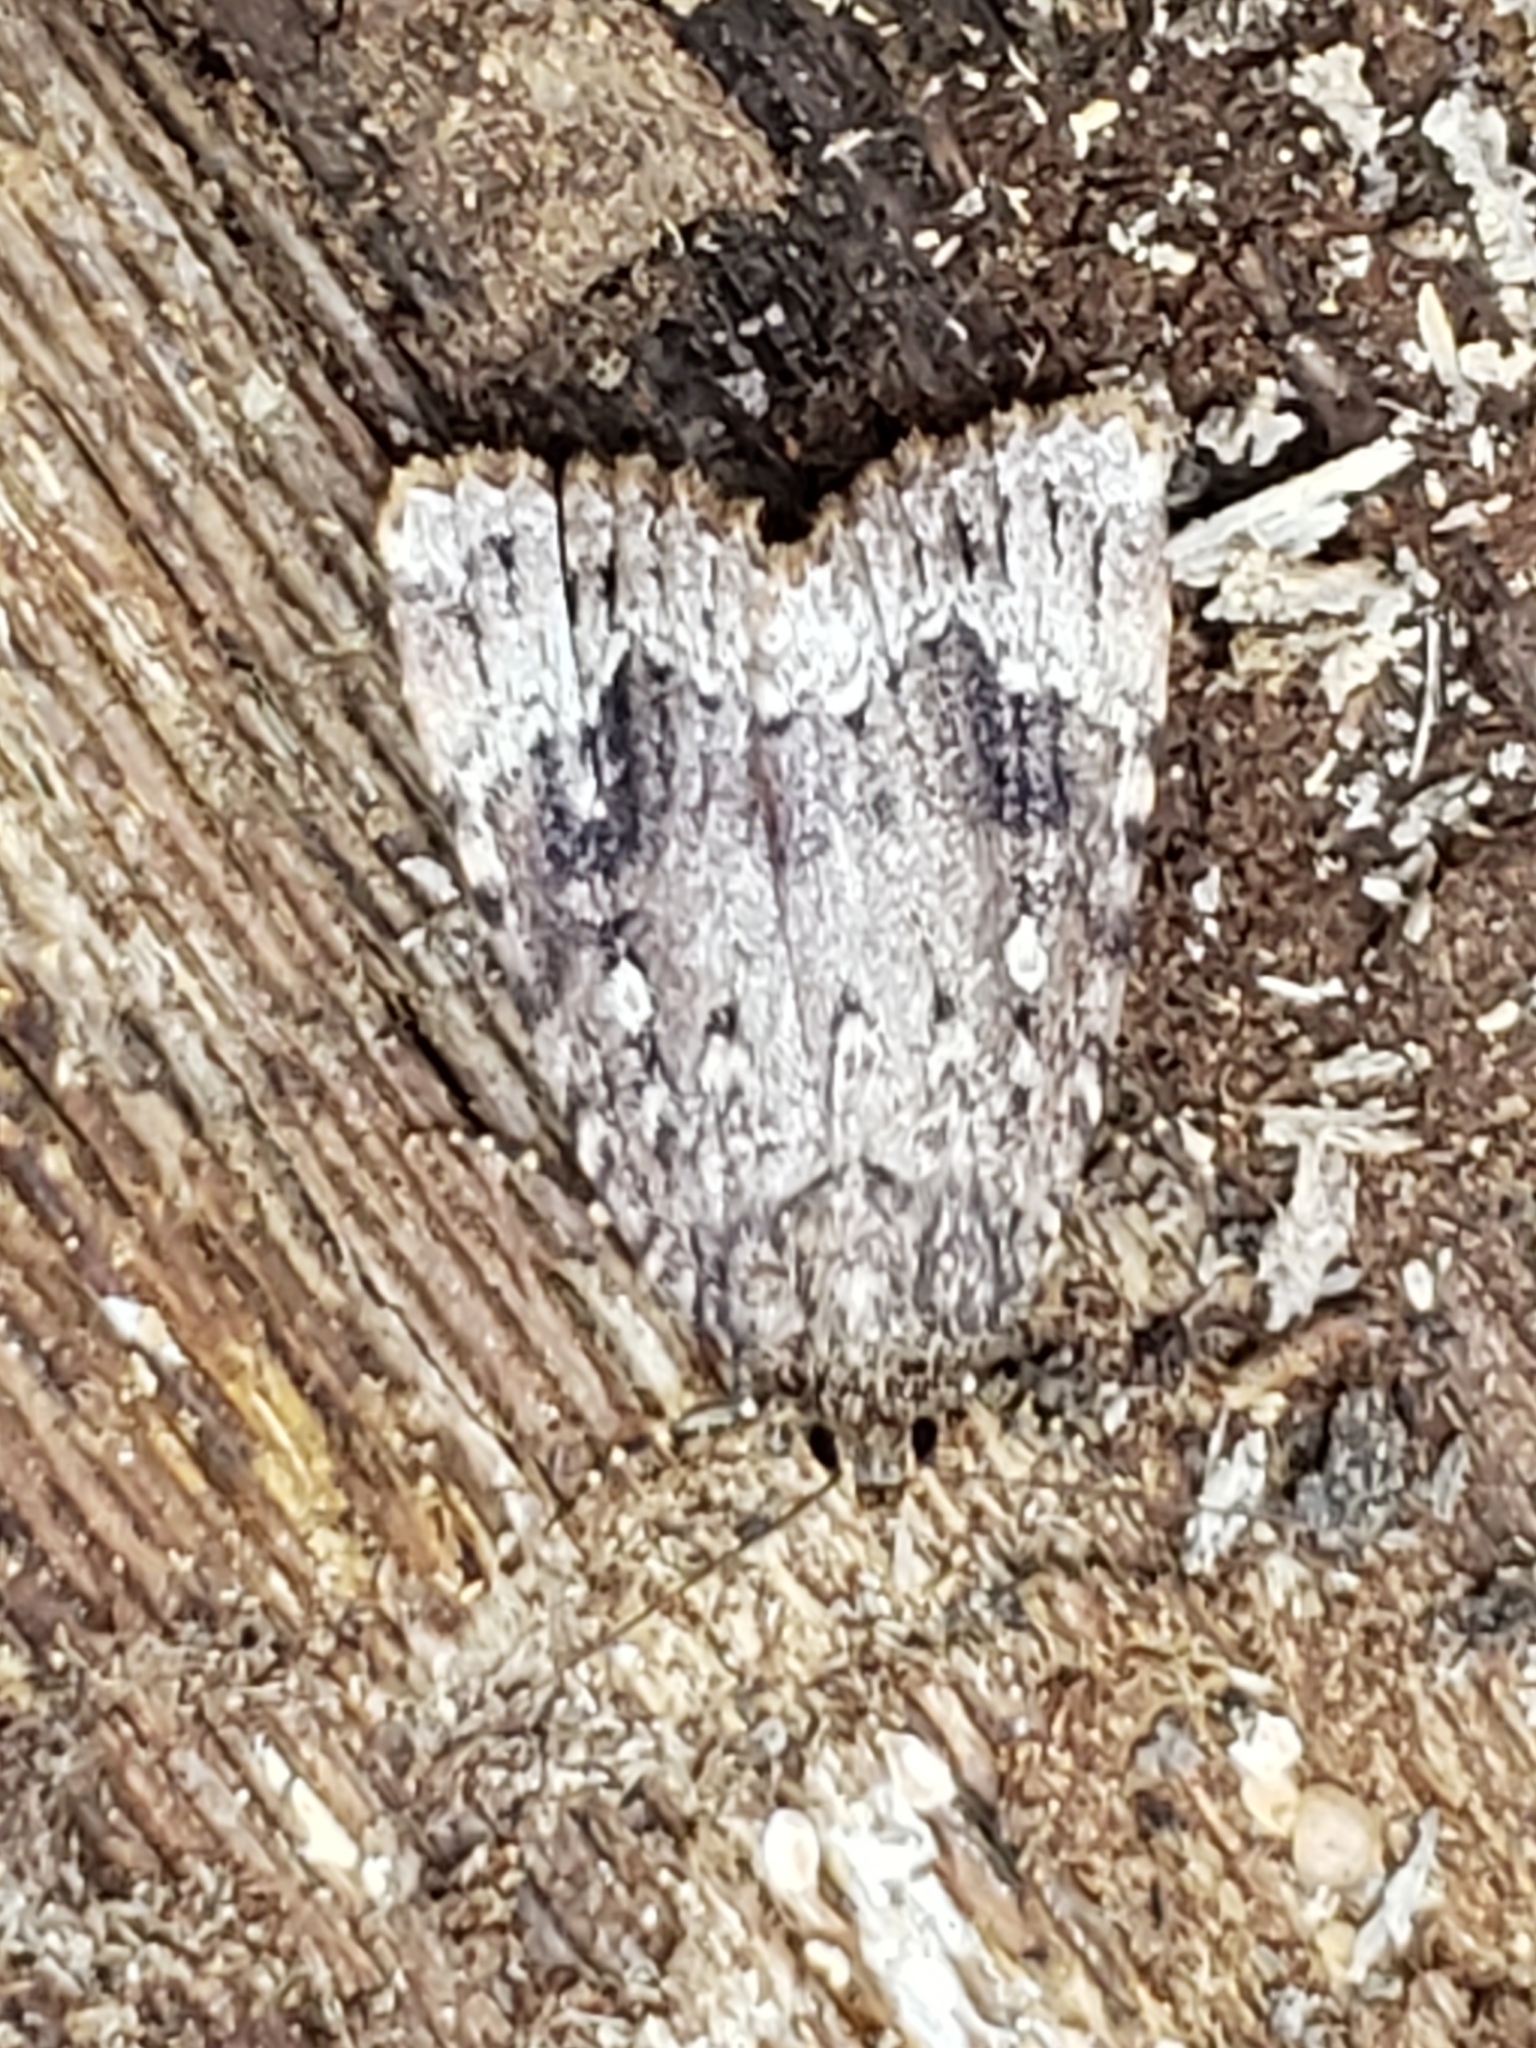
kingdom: Animalia
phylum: Arthropoda
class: Insecta
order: Lepidoptera
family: Noctuidae
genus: Amphipyra
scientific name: Amphipyra pyramidoides
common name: American copper underwing
